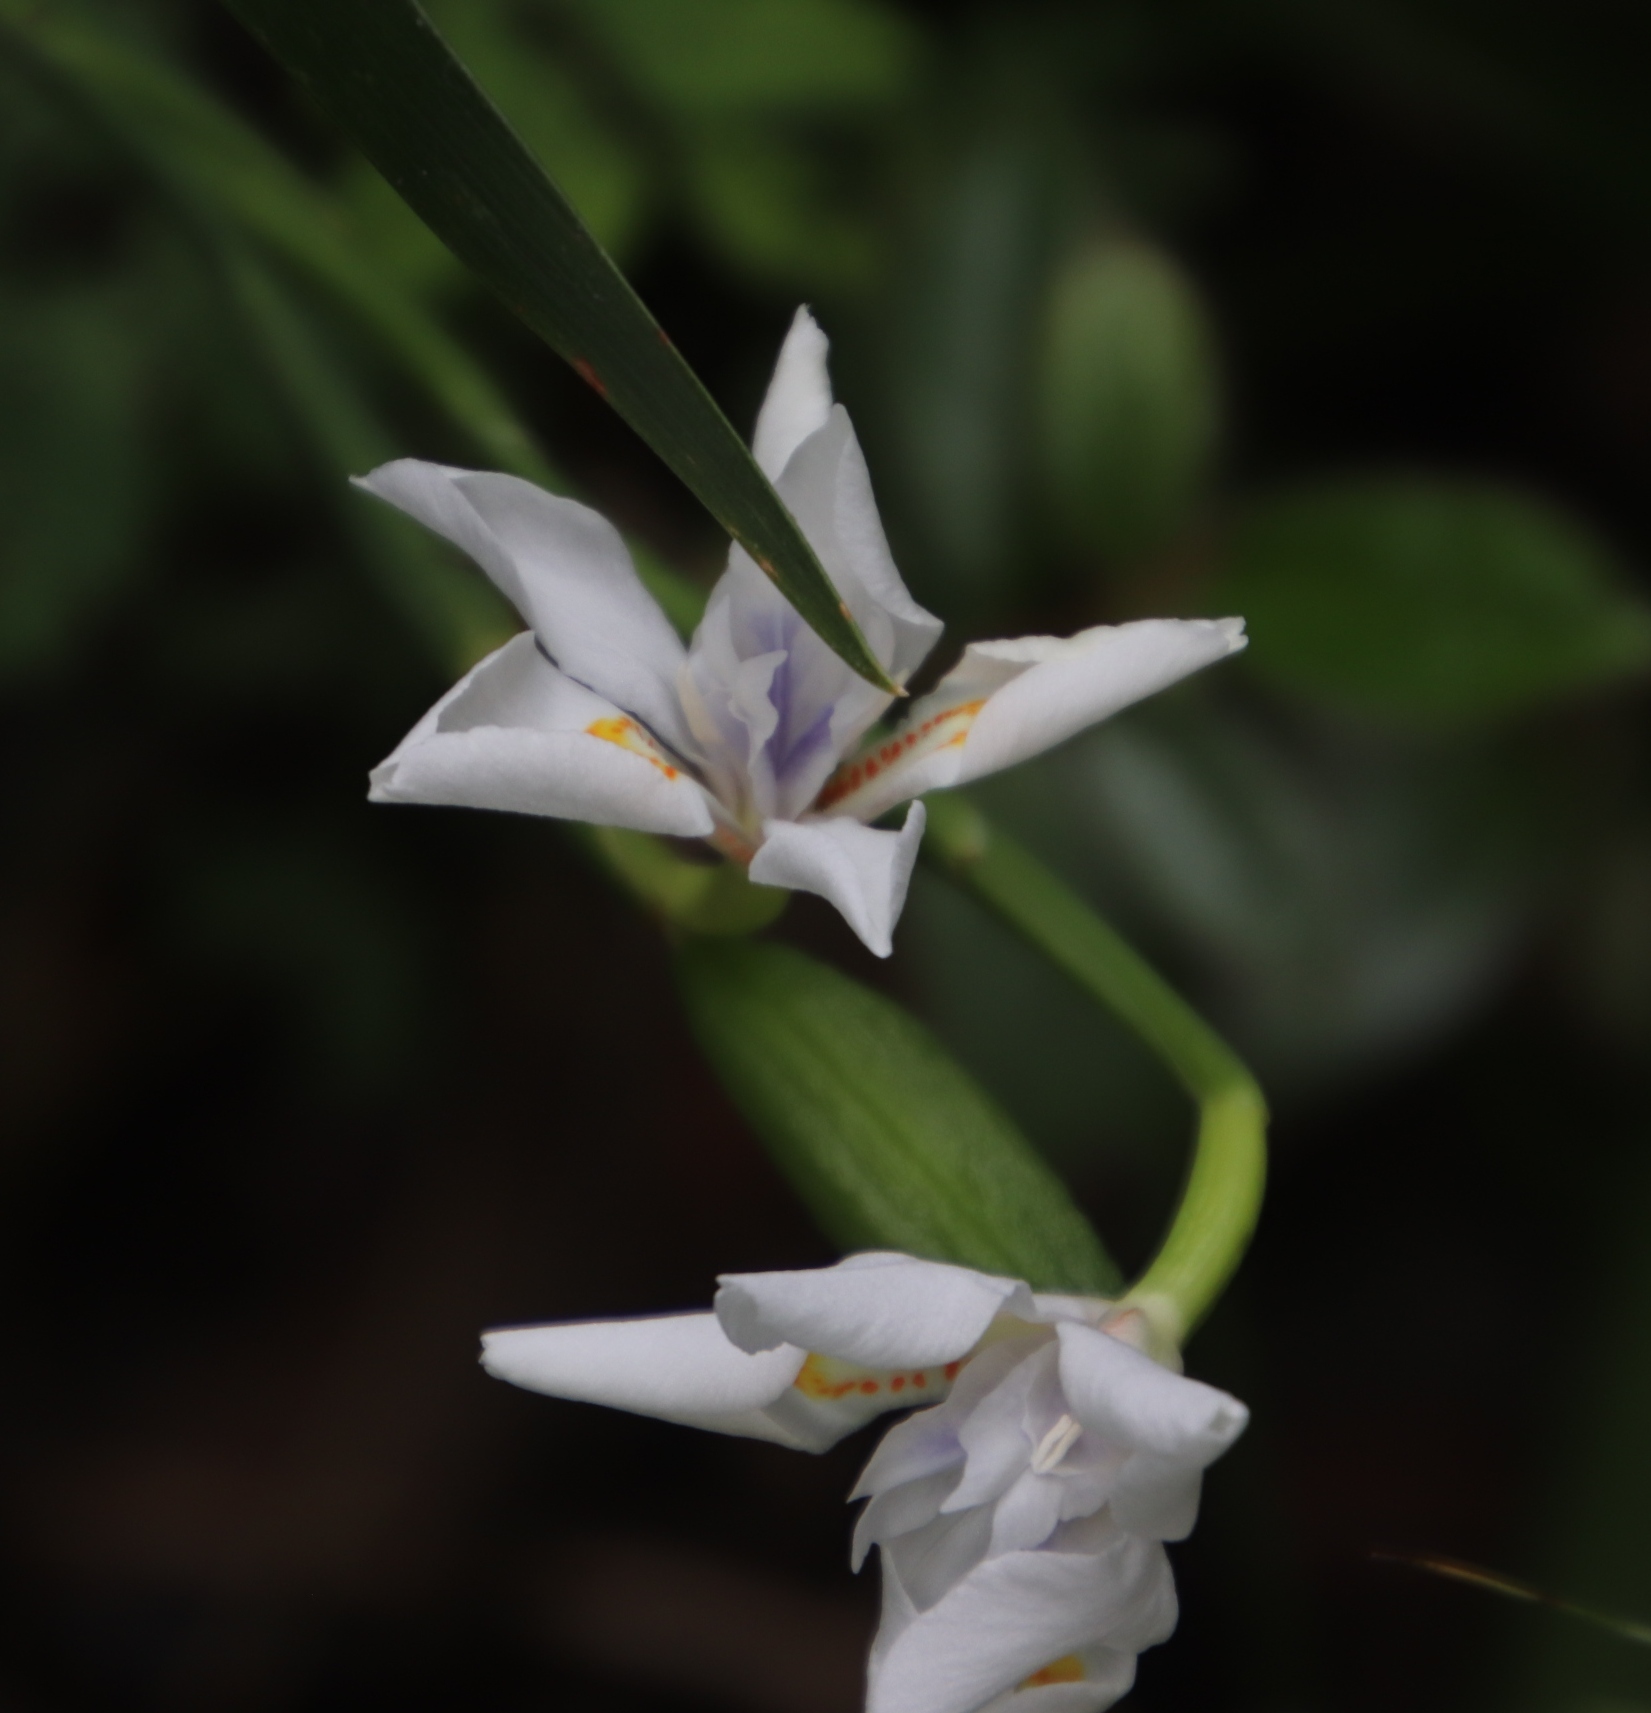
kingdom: Plantae
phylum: Tracheophyta
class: Liliopsida
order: Asparagales
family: Iridaceae
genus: Dietes
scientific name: Dietes iridioides
